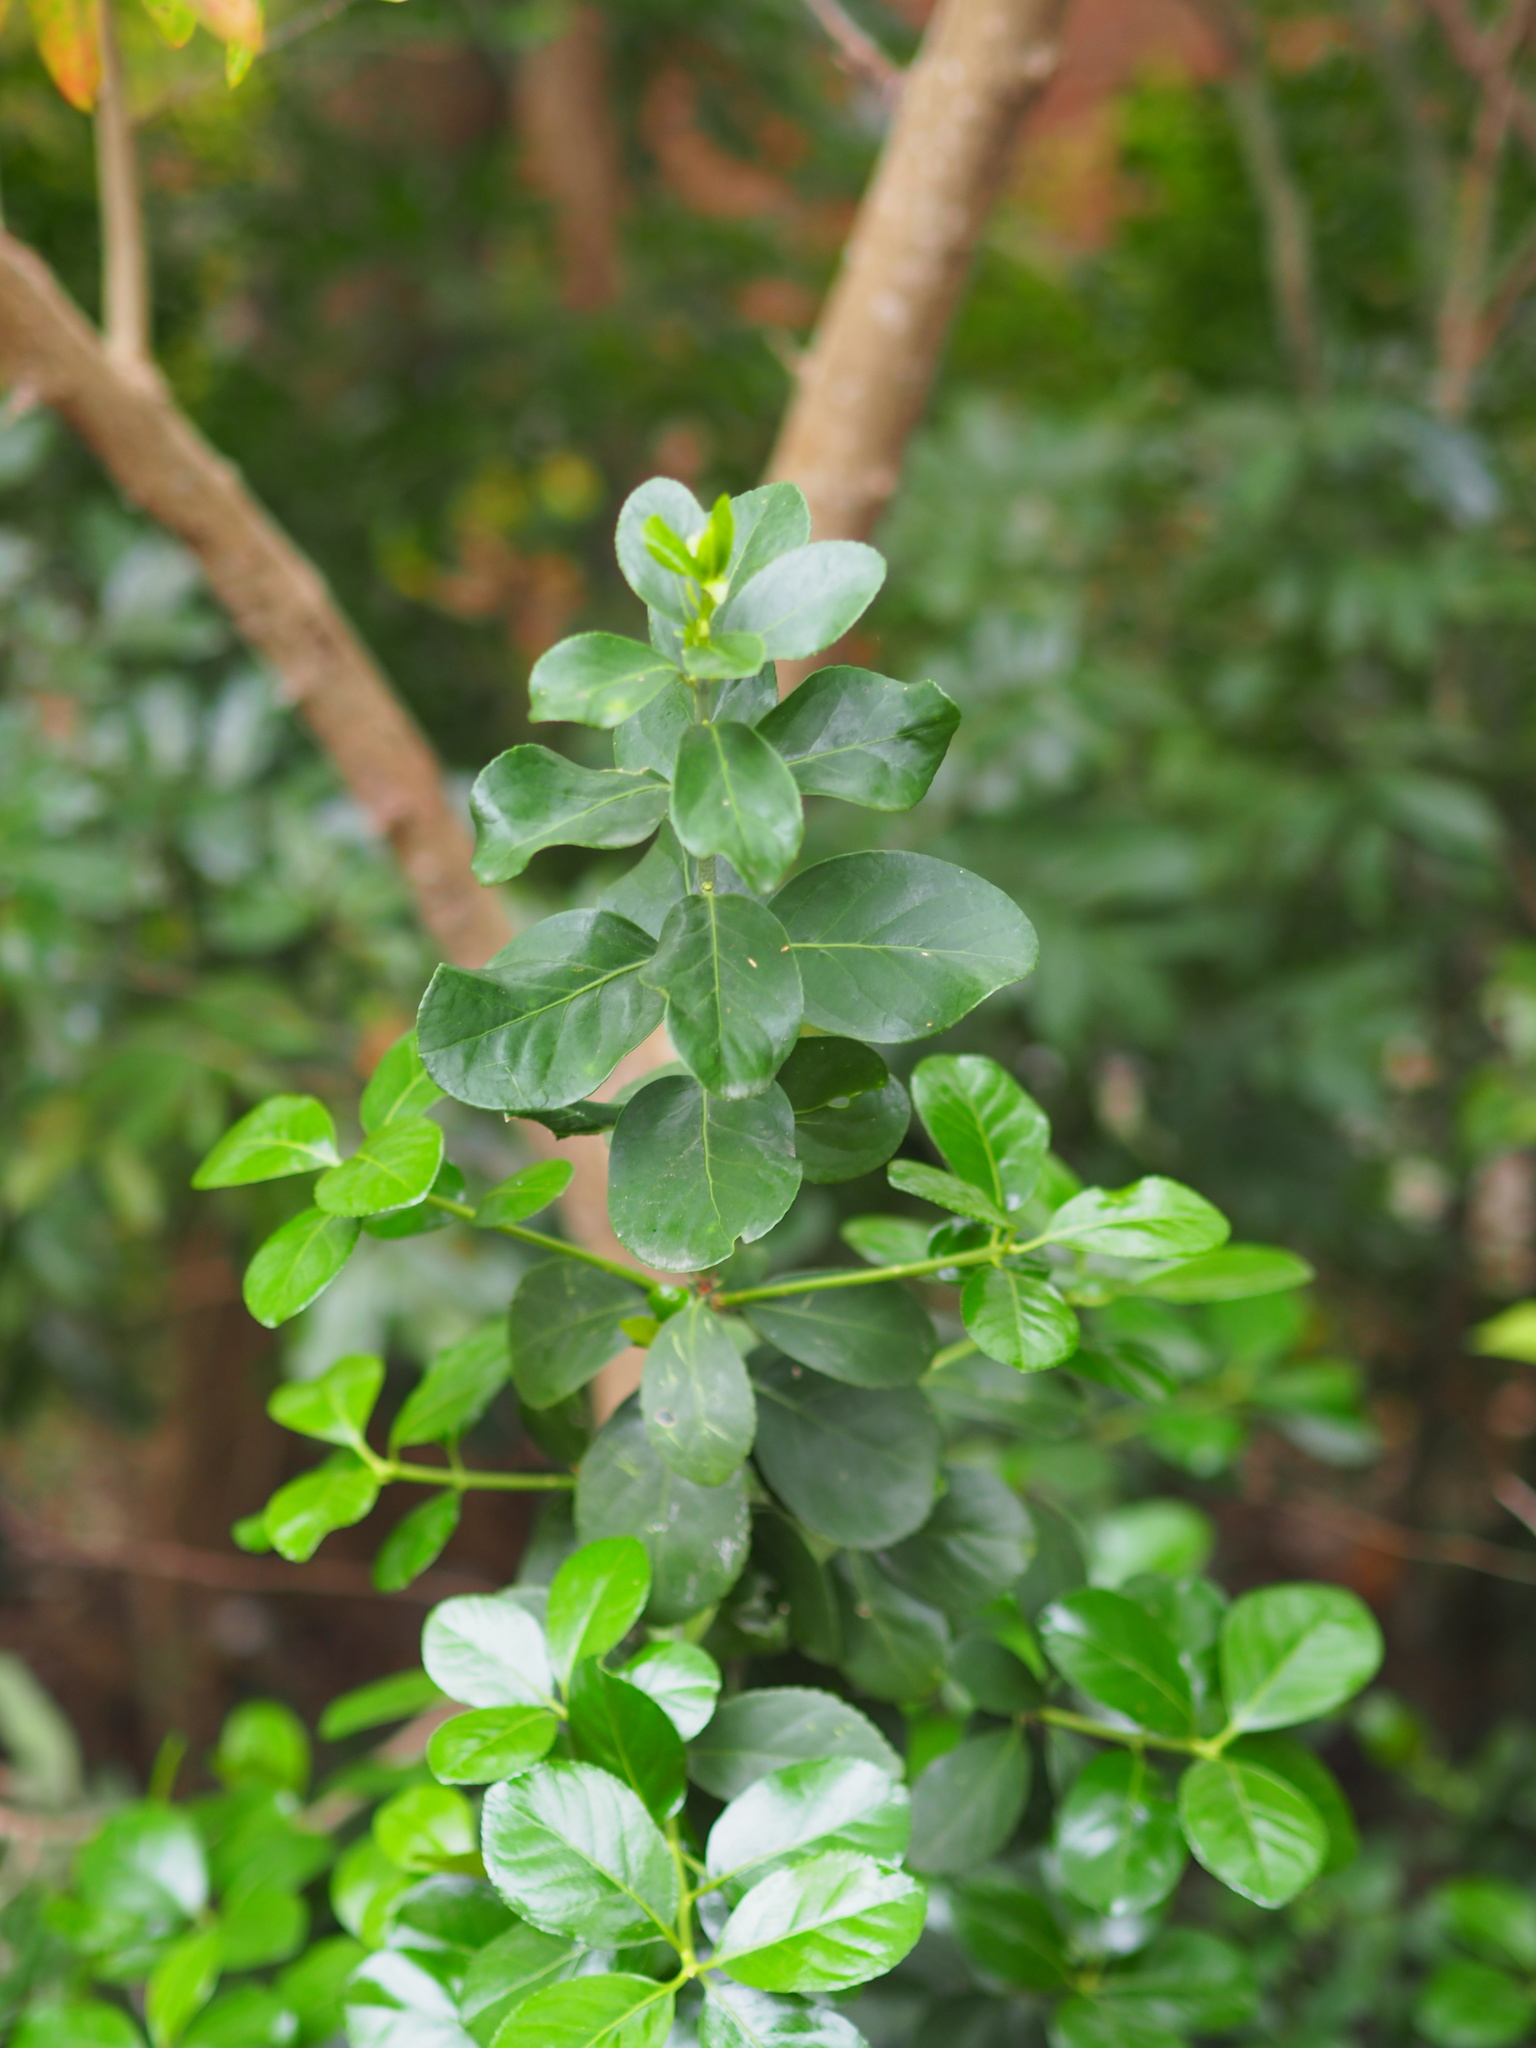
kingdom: Plantae
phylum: Tracheophyta
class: Magnoliopsida
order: Celastrales
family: Celastraceae
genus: Euonymus
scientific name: Euonymus japonicus
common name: Japanese spindletree
